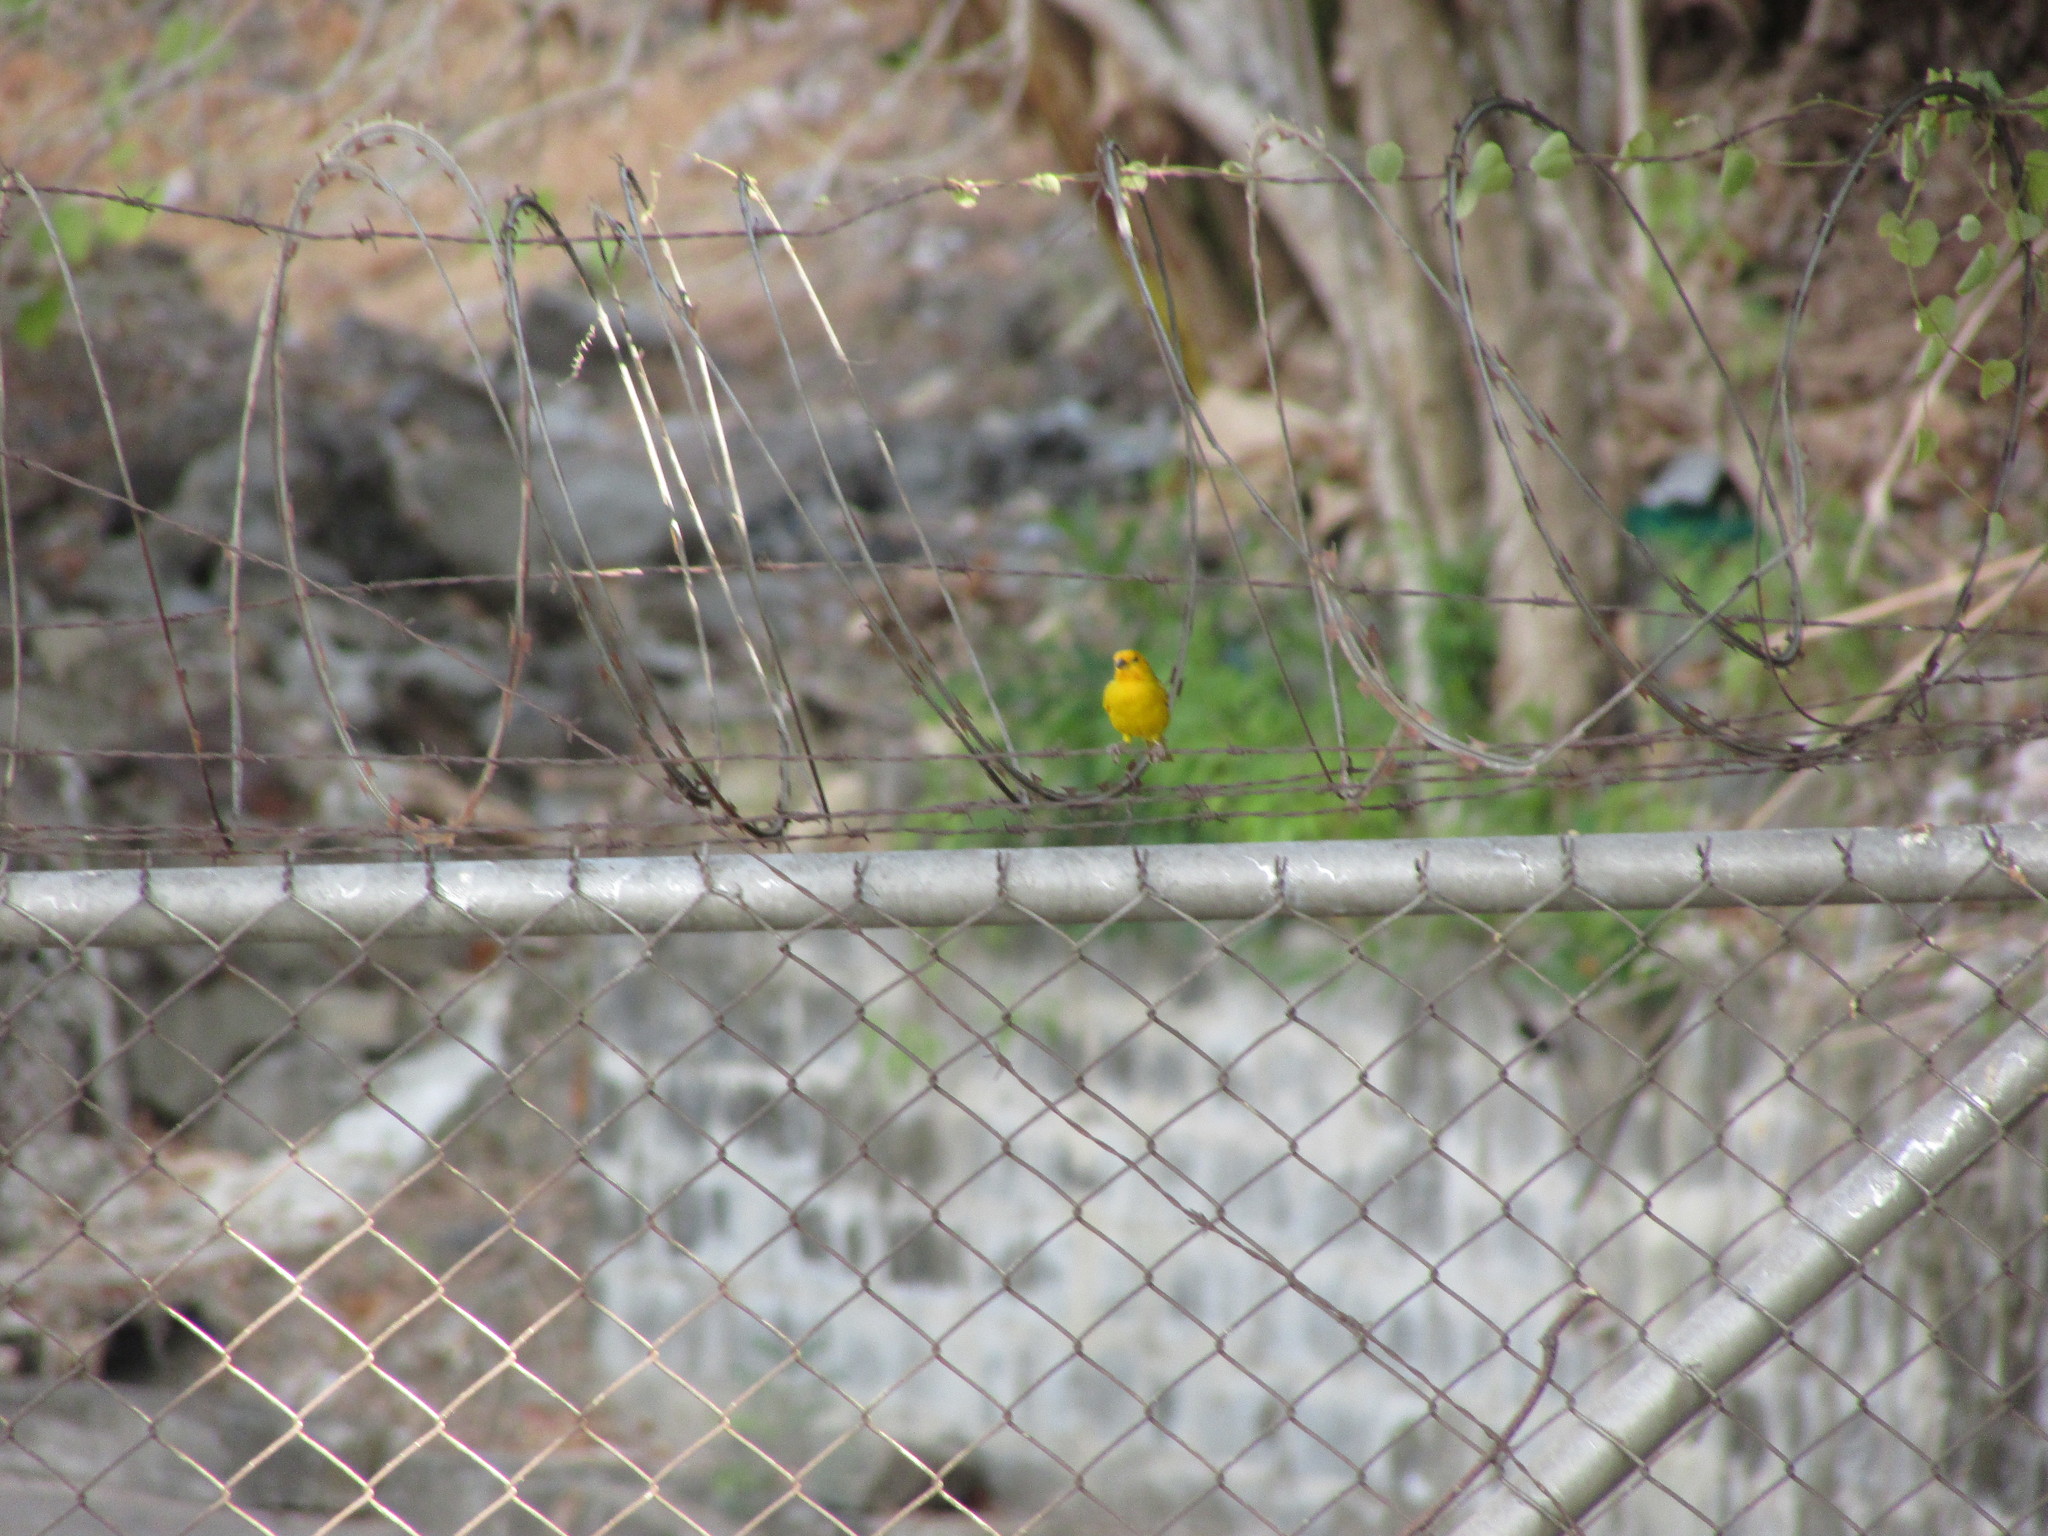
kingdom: Animalia
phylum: Chordata
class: Aves
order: Passeriformes
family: Thraupidae
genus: Sicalis
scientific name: Sicalis flaveola
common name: Saffron finch
